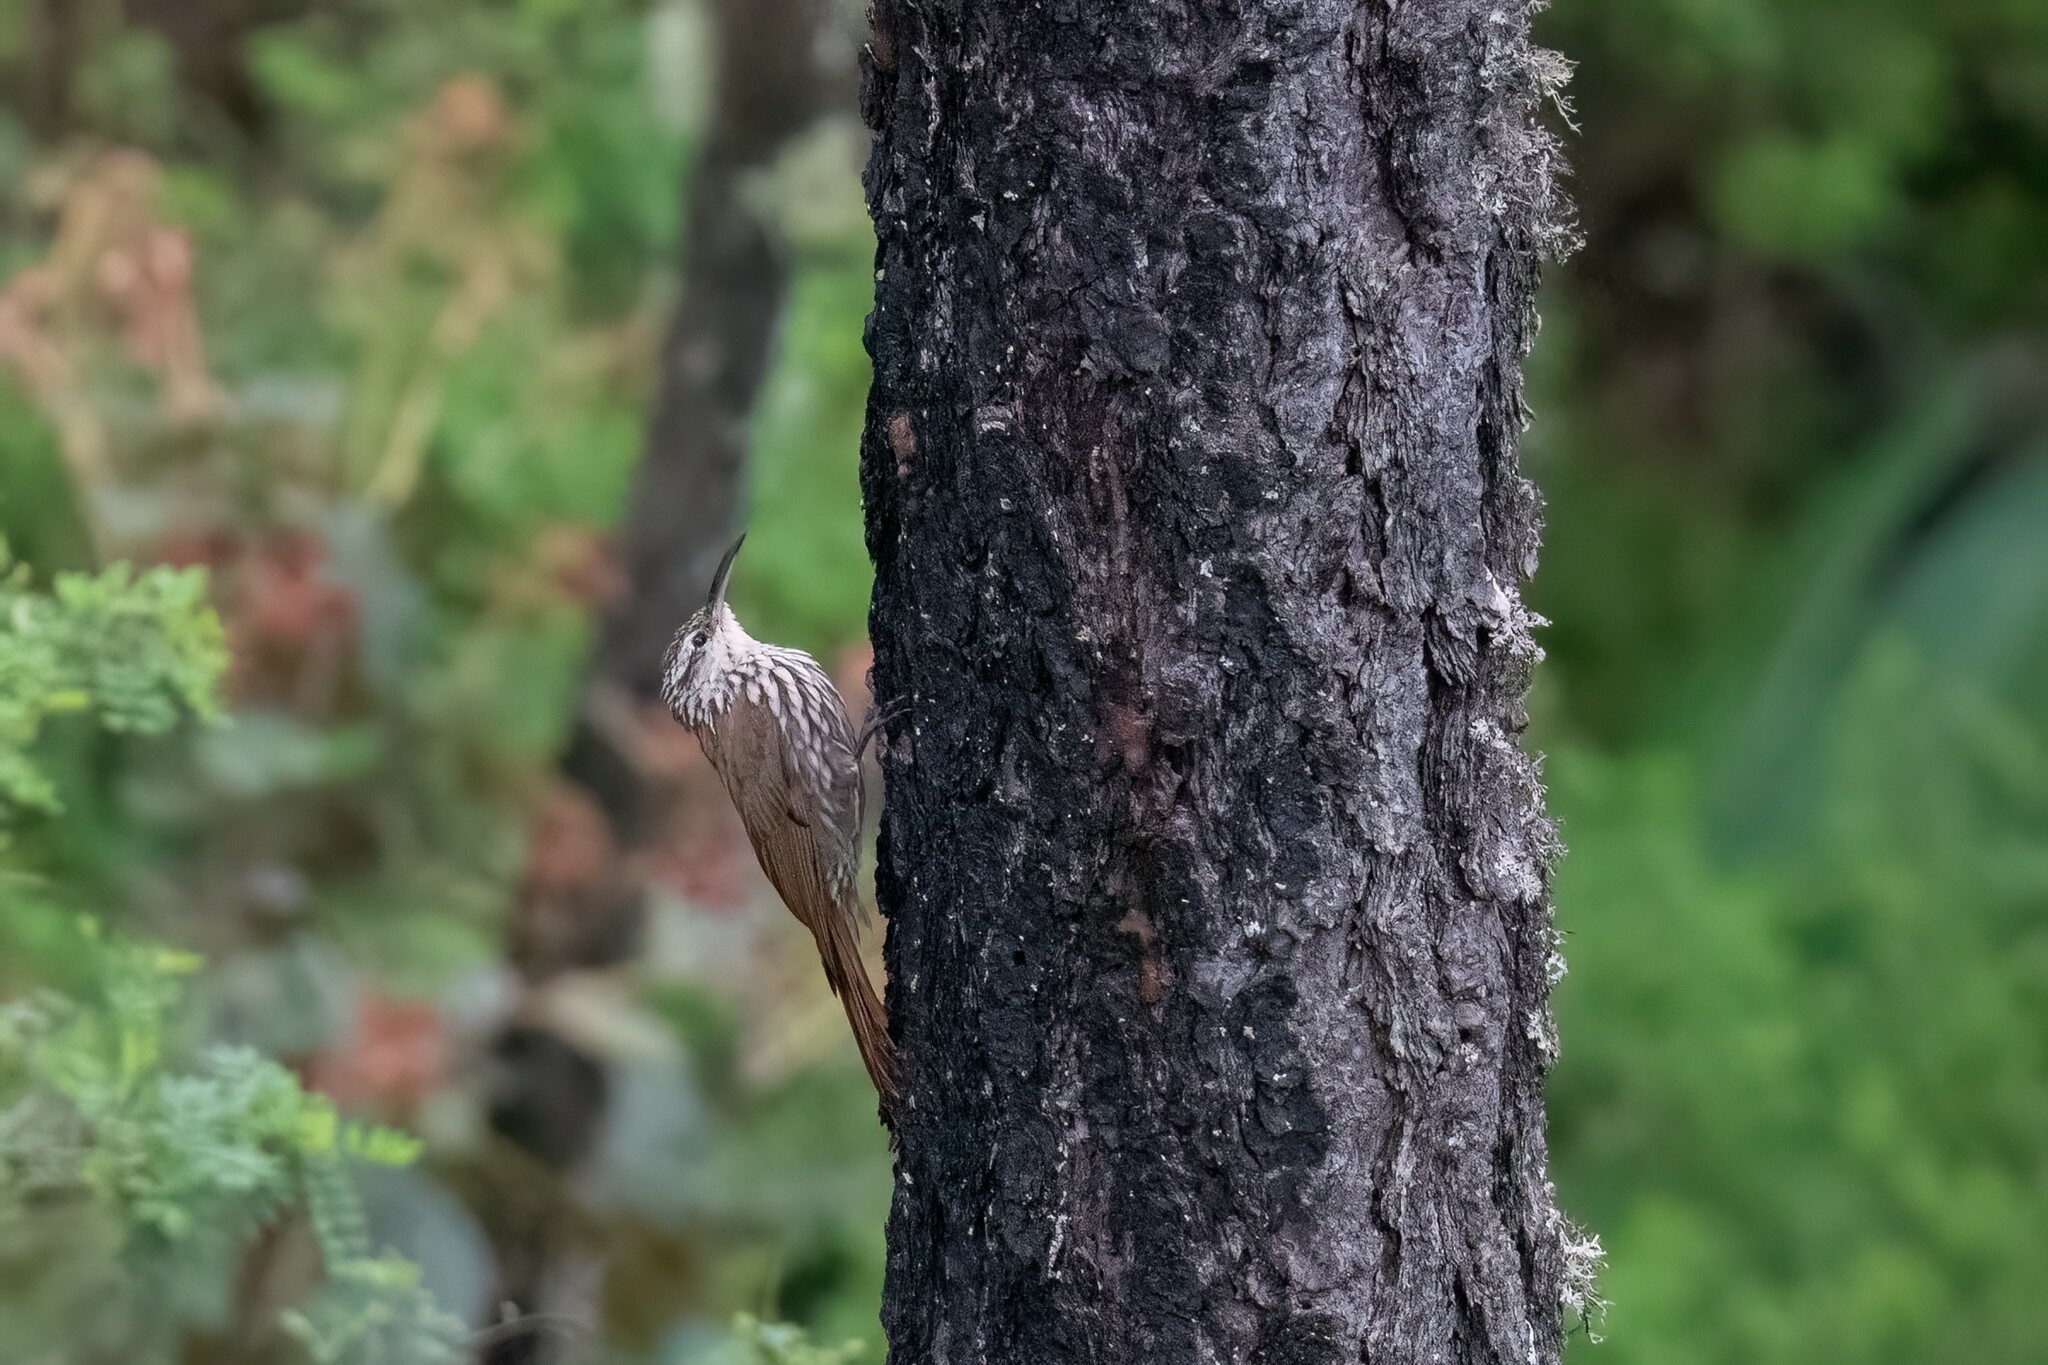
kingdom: Animalia
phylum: Chordata
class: Aves
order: Passeriformes
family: Furnariidae
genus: Lepidocolaptes
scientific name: Lepidocolaptes leucogaster
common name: White-striped woodcreeper
